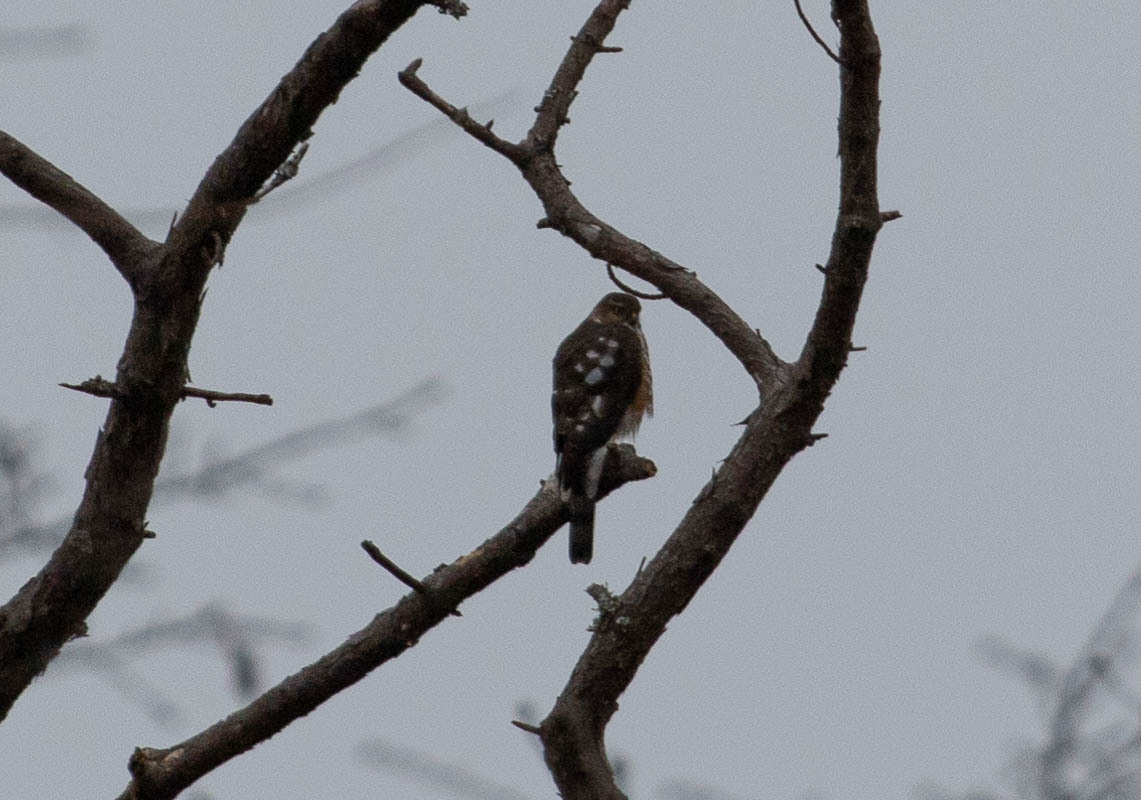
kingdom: Animalia
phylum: Chordata
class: Aves
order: Accipitriformes
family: Accipitridae
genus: Accipiter
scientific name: Accipiter striatus
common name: Sharp-shinned hawk
